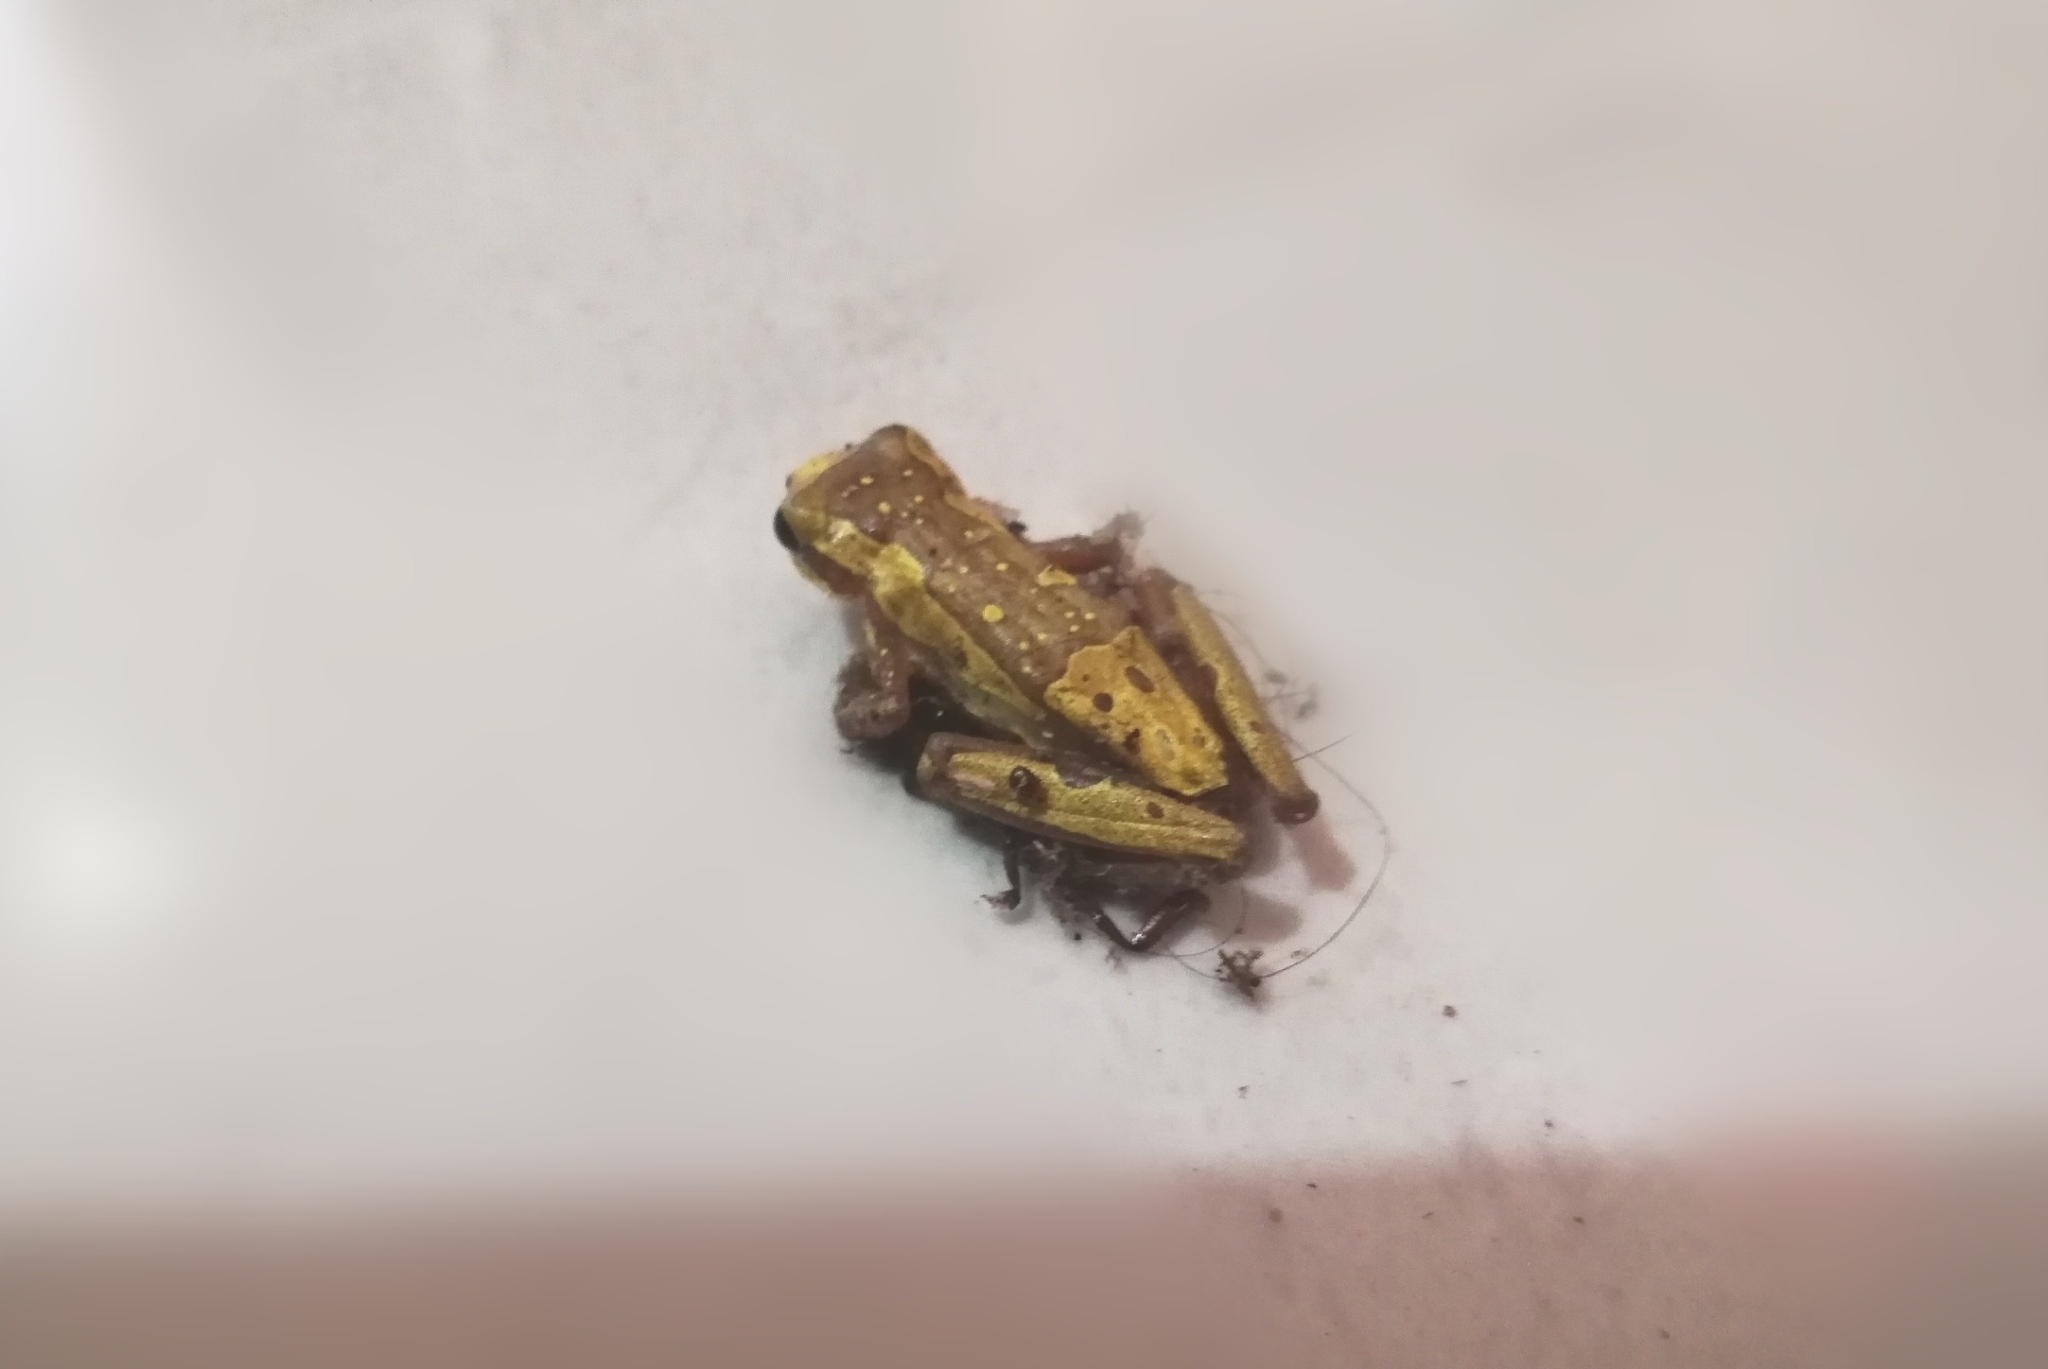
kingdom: Animalia
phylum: Chordata
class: Amphibia
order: Anura
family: Hylidae
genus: Dendropsophus
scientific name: Dendropsophus ebraccatus
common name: Hourglass treefrog
